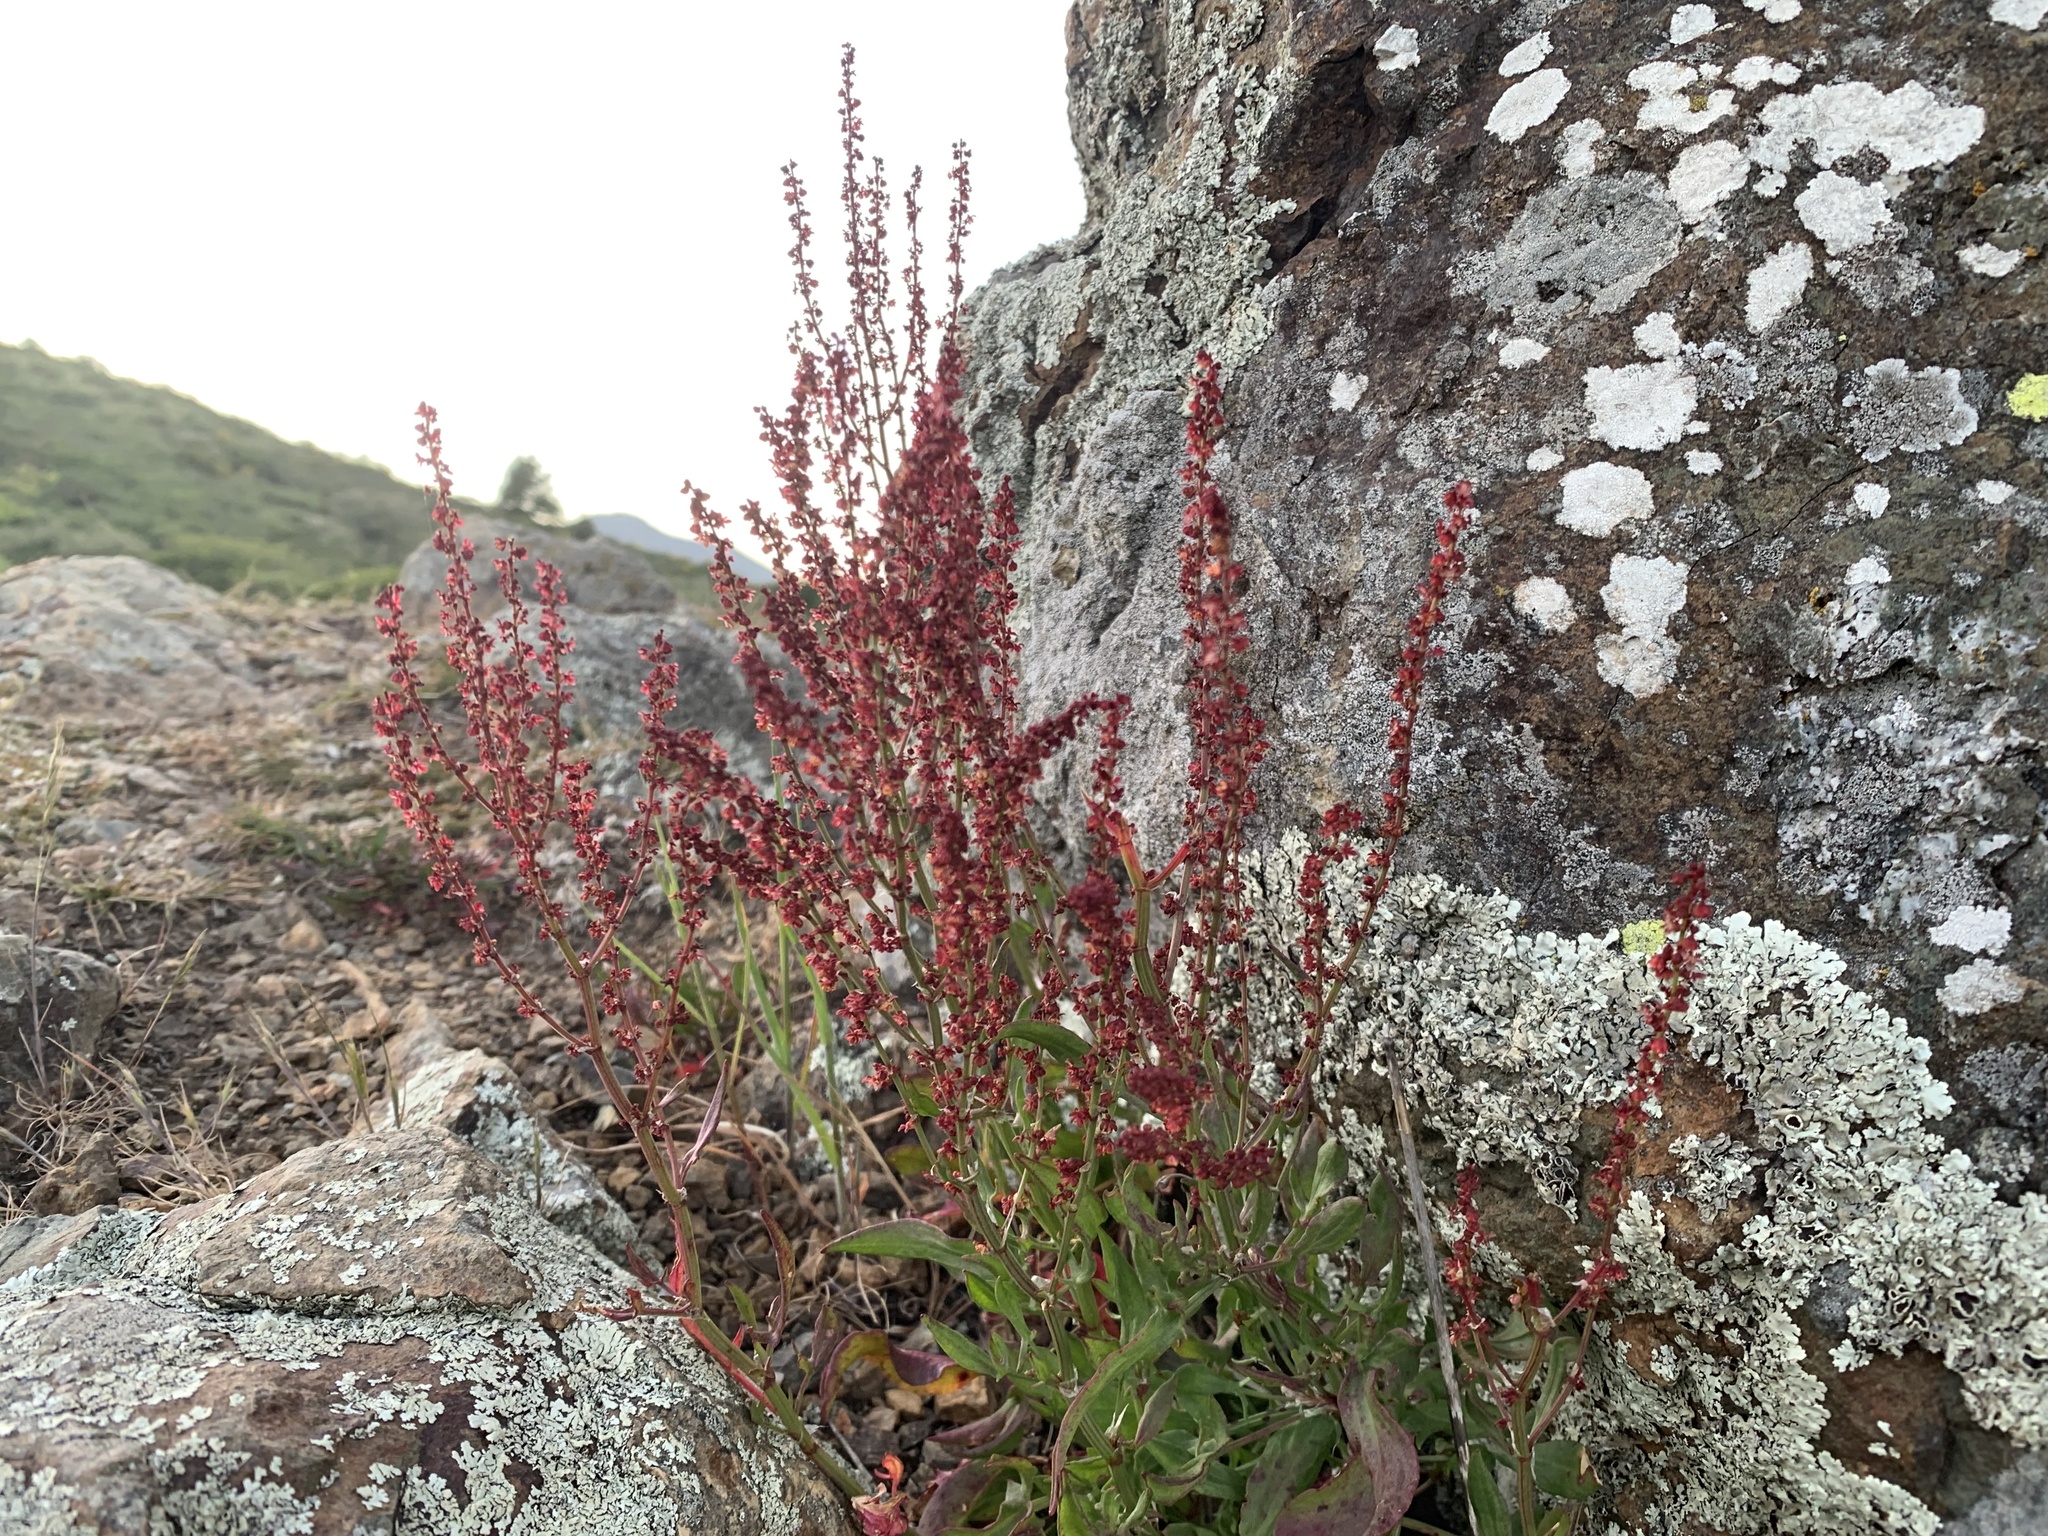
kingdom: Plantae
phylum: Tracheophyta
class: Magnoliopsida
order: Caryophyllales
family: Polygonaceae
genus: Rumex
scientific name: Rumex acetosella
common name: Common sheep sorrel
